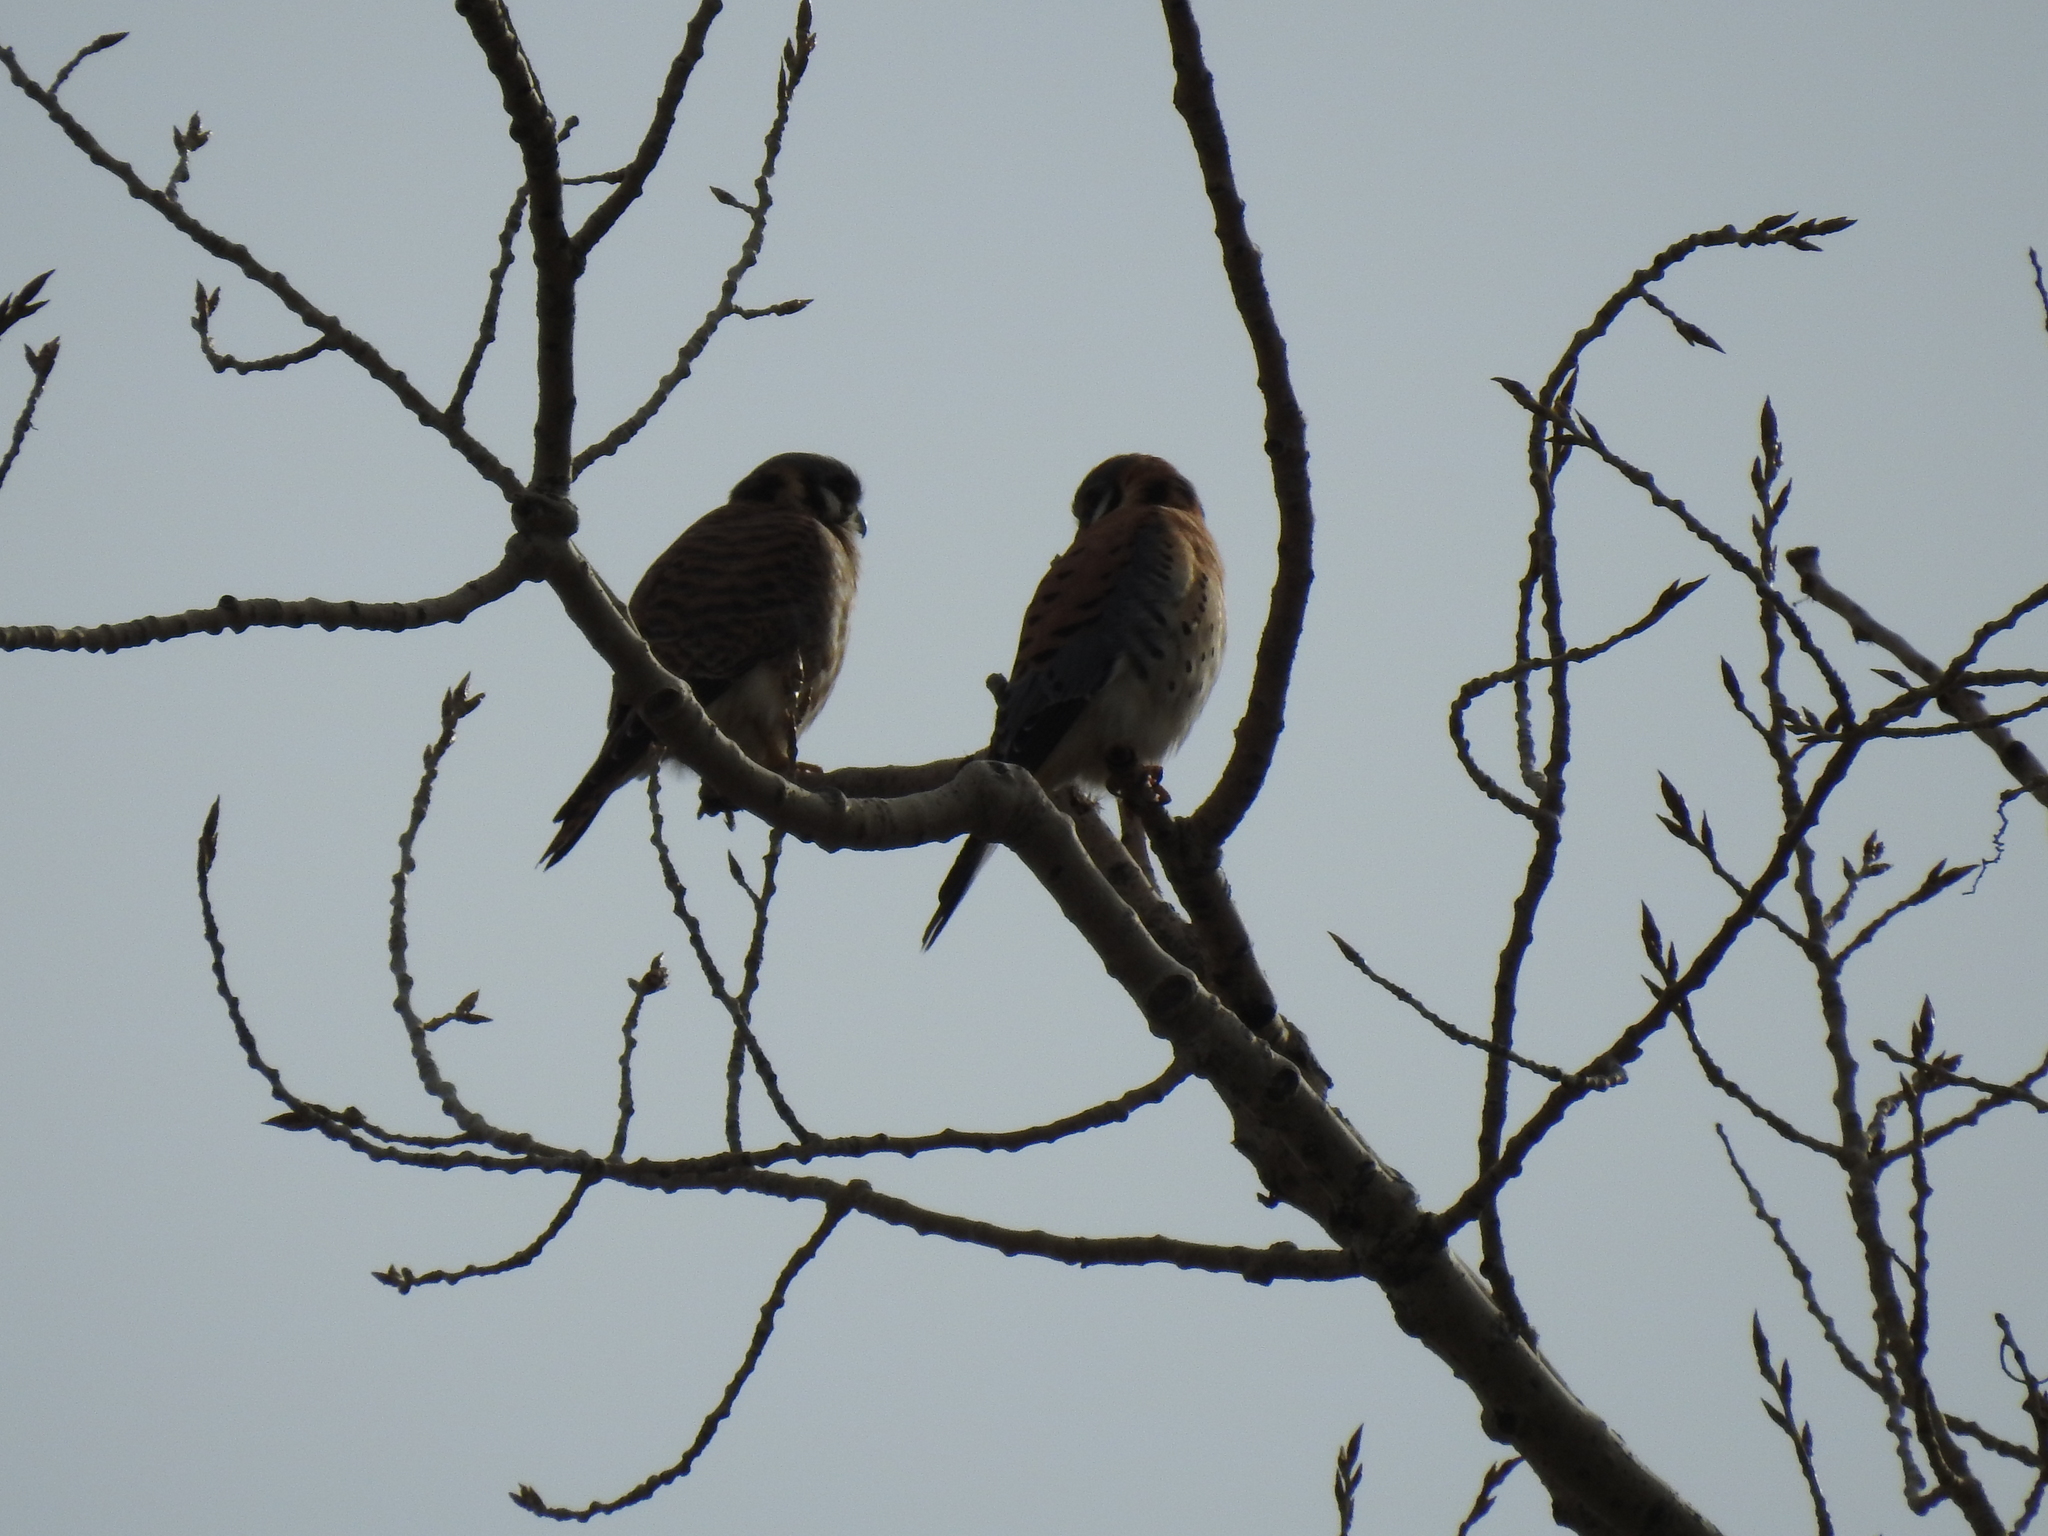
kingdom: Animalia
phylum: Chordata
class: Aves
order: Falconiformes
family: Falconidae
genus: Falco
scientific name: Falco sparverius
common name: American kestrel
